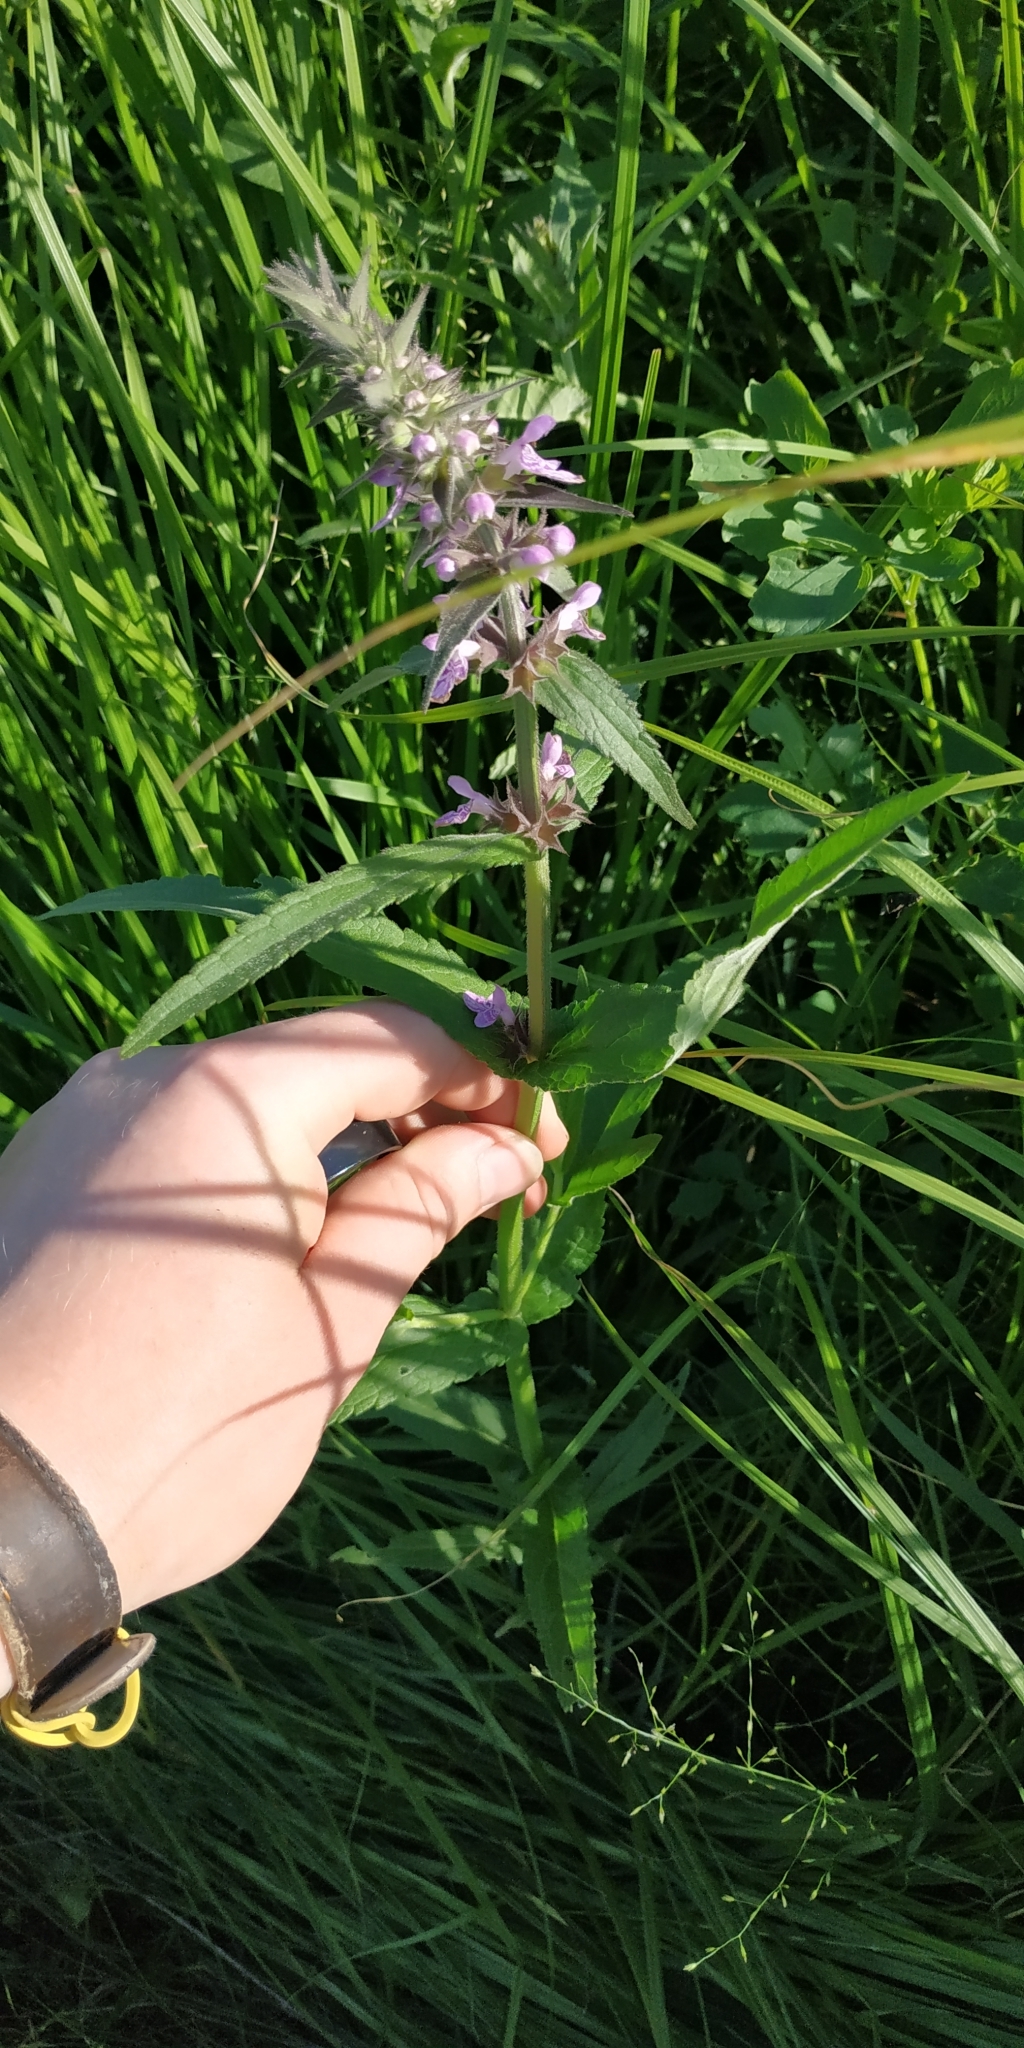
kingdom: Plantae
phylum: Tracheophyta
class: Magnoliopsida
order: Lamiales
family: Lamiaceae
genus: Stachys
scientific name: Stachys palustris
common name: Marsh woundwort
